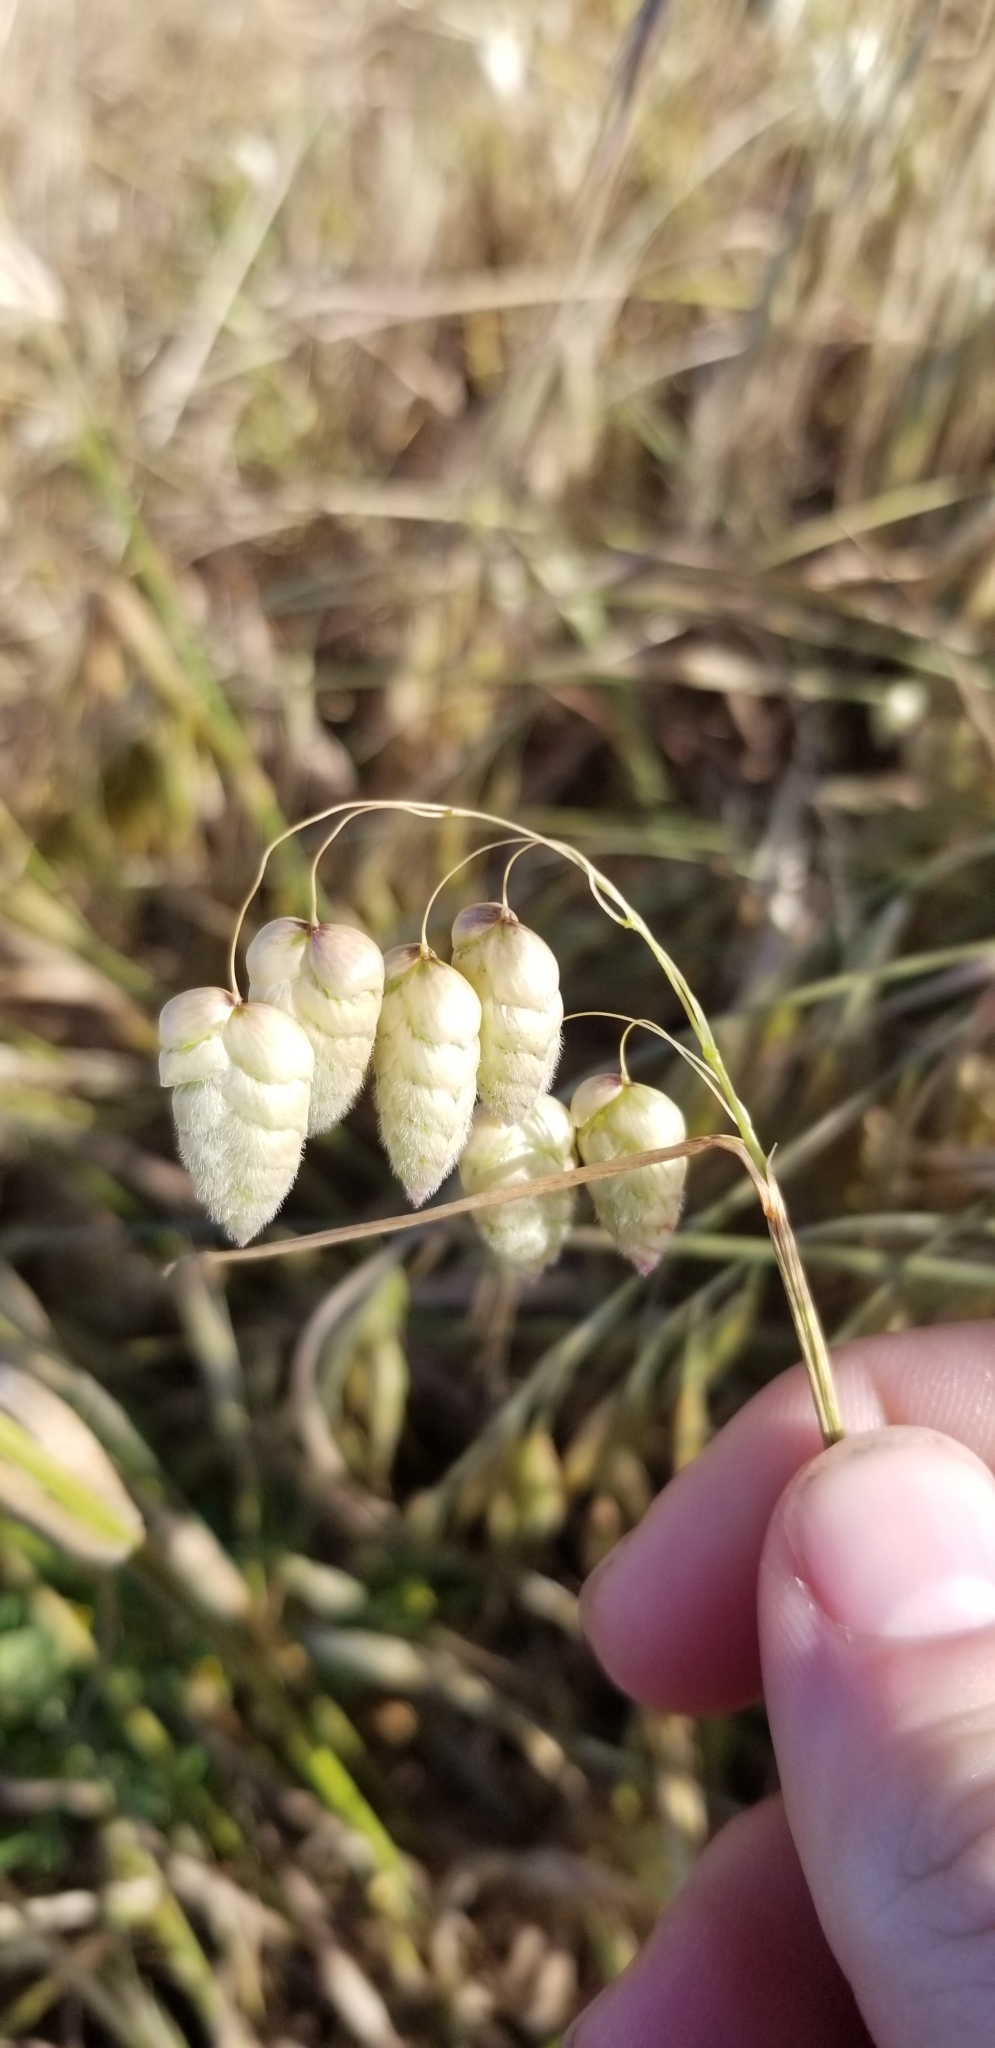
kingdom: Plantae
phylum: Tracheophyta
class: Liliopsida
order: Poales
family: Poaceae
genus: Briza
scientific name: Briza maxima
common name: Big quakinggrass
